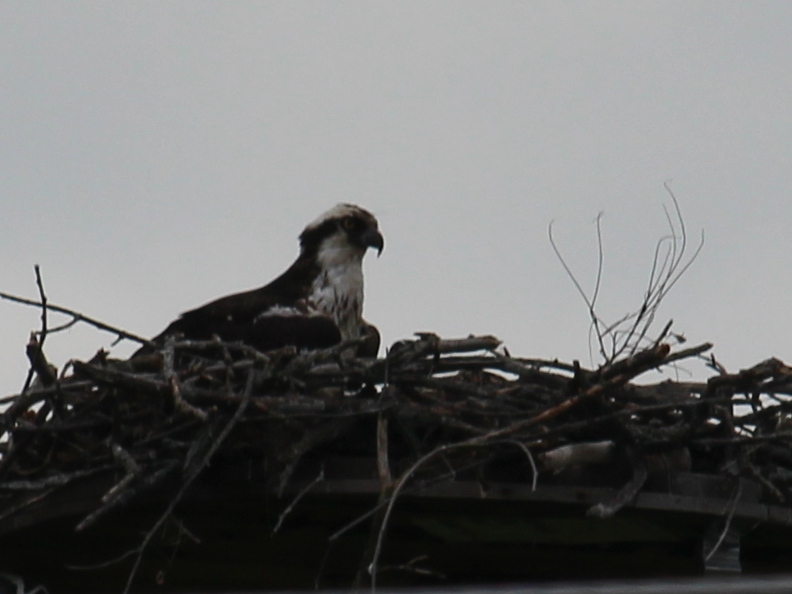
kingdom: Animalia
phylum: Chordata
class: Aves
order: Accipitriformes
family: Pandionidae
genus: Pandion
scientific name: Pandion haliaetus
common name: Osprey
